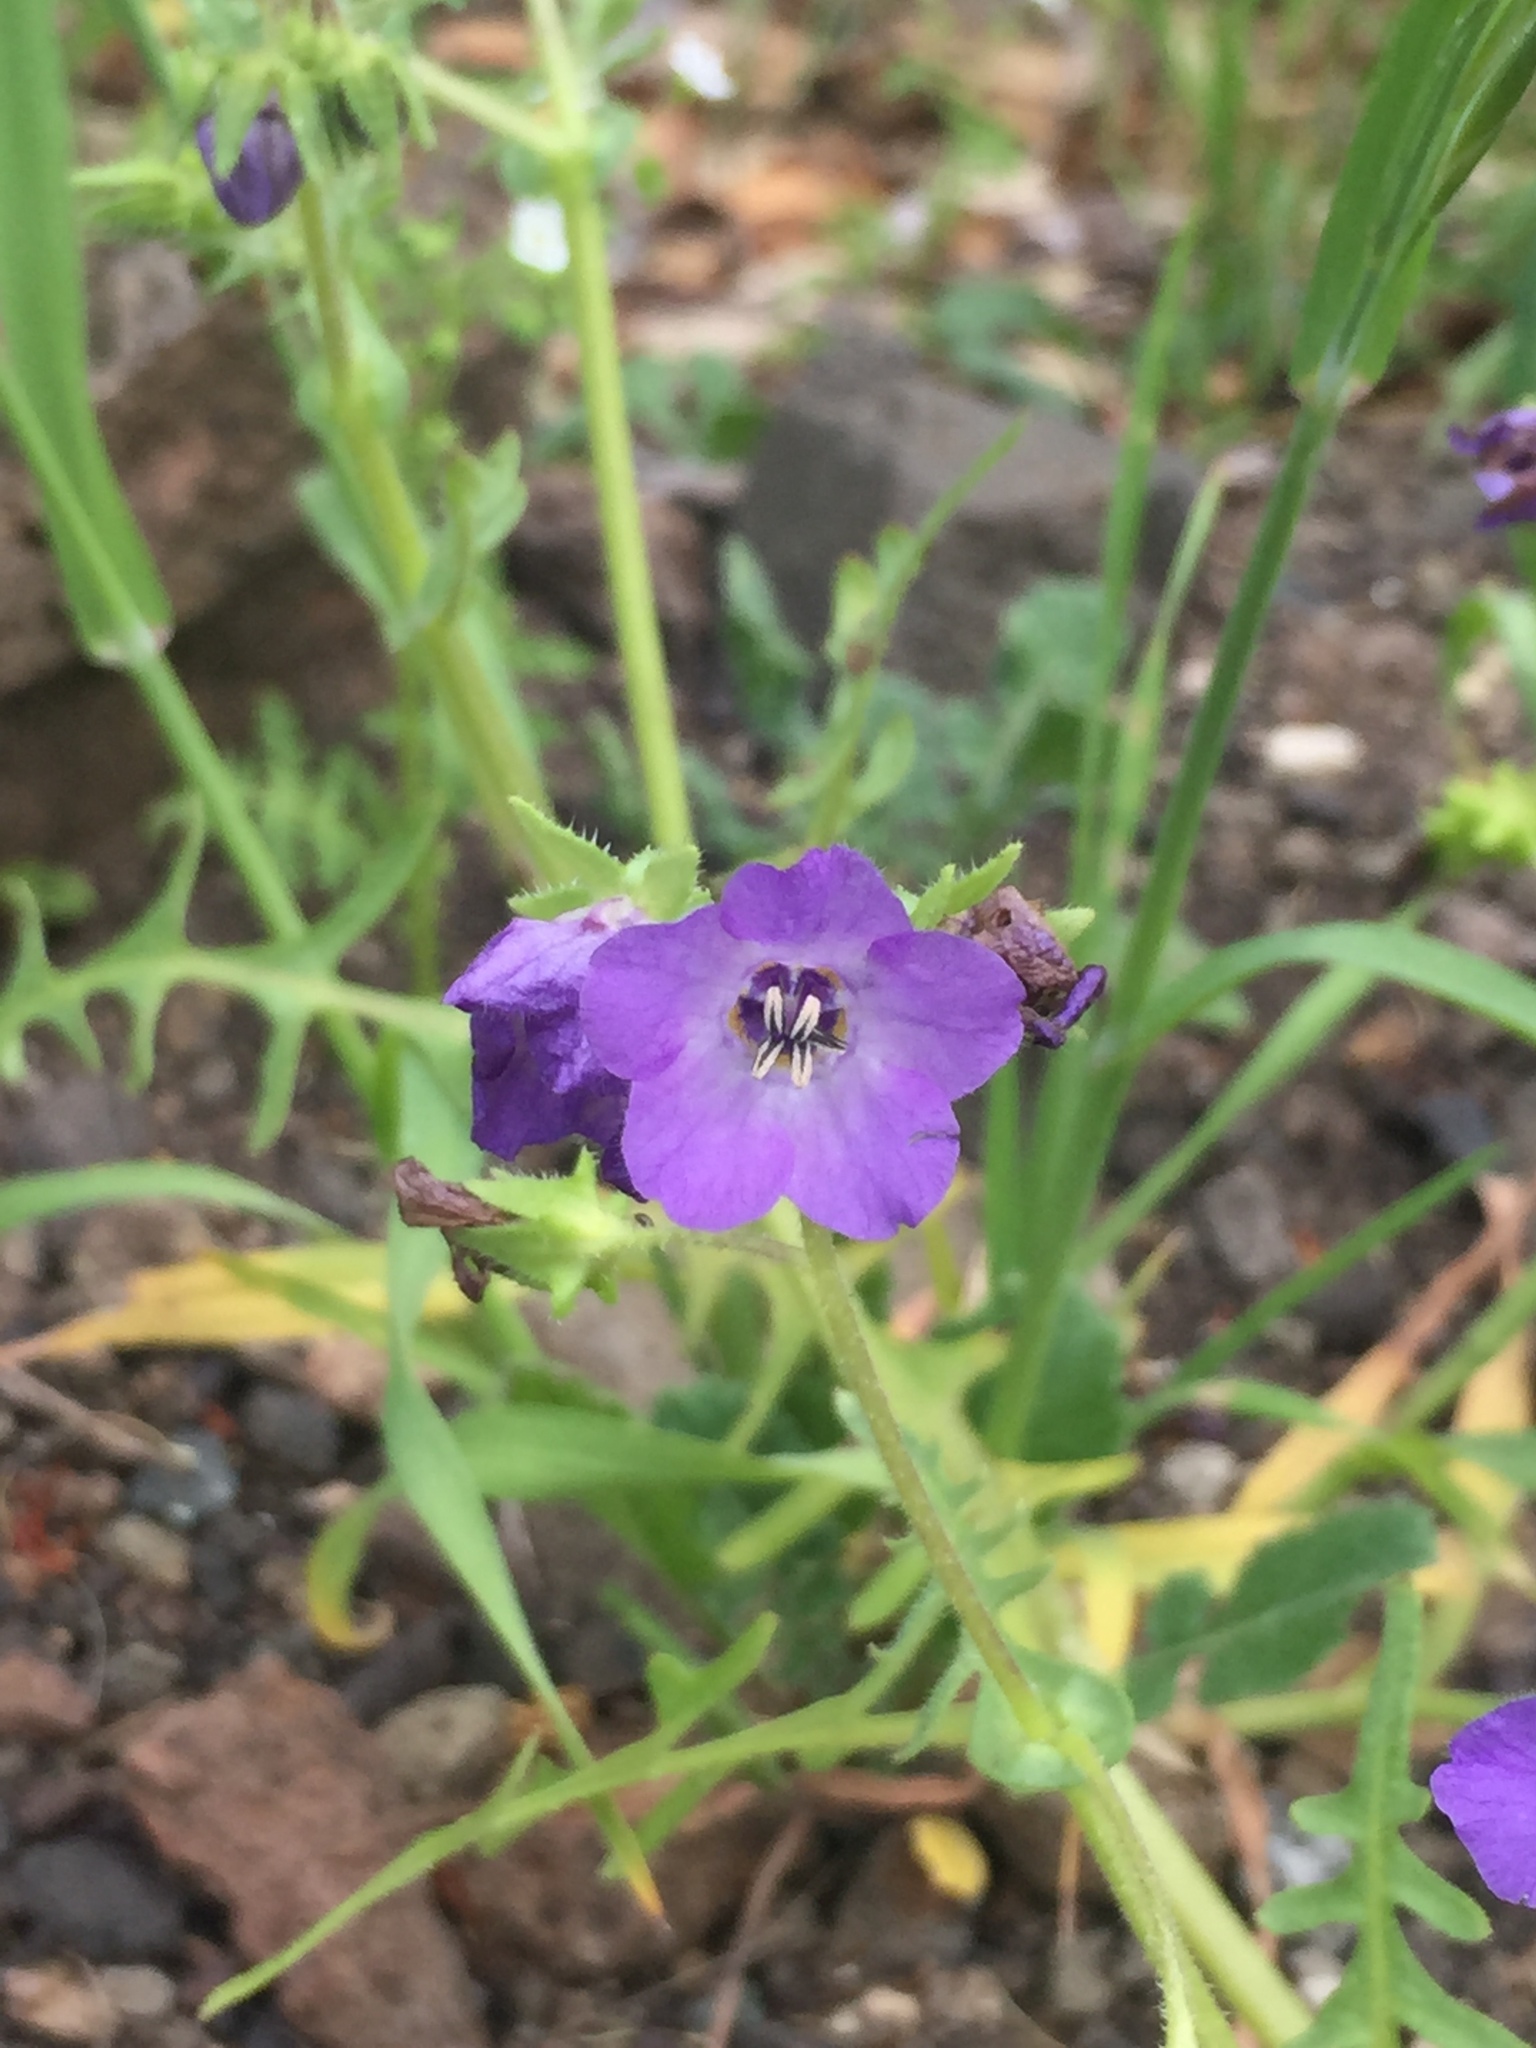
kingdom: Plantae
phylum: Tracheophyta
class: Magnoliopsida
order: Boraginales
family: Hydrophyllaceae
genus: Pholistoma
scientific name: Pholistoma auritum
